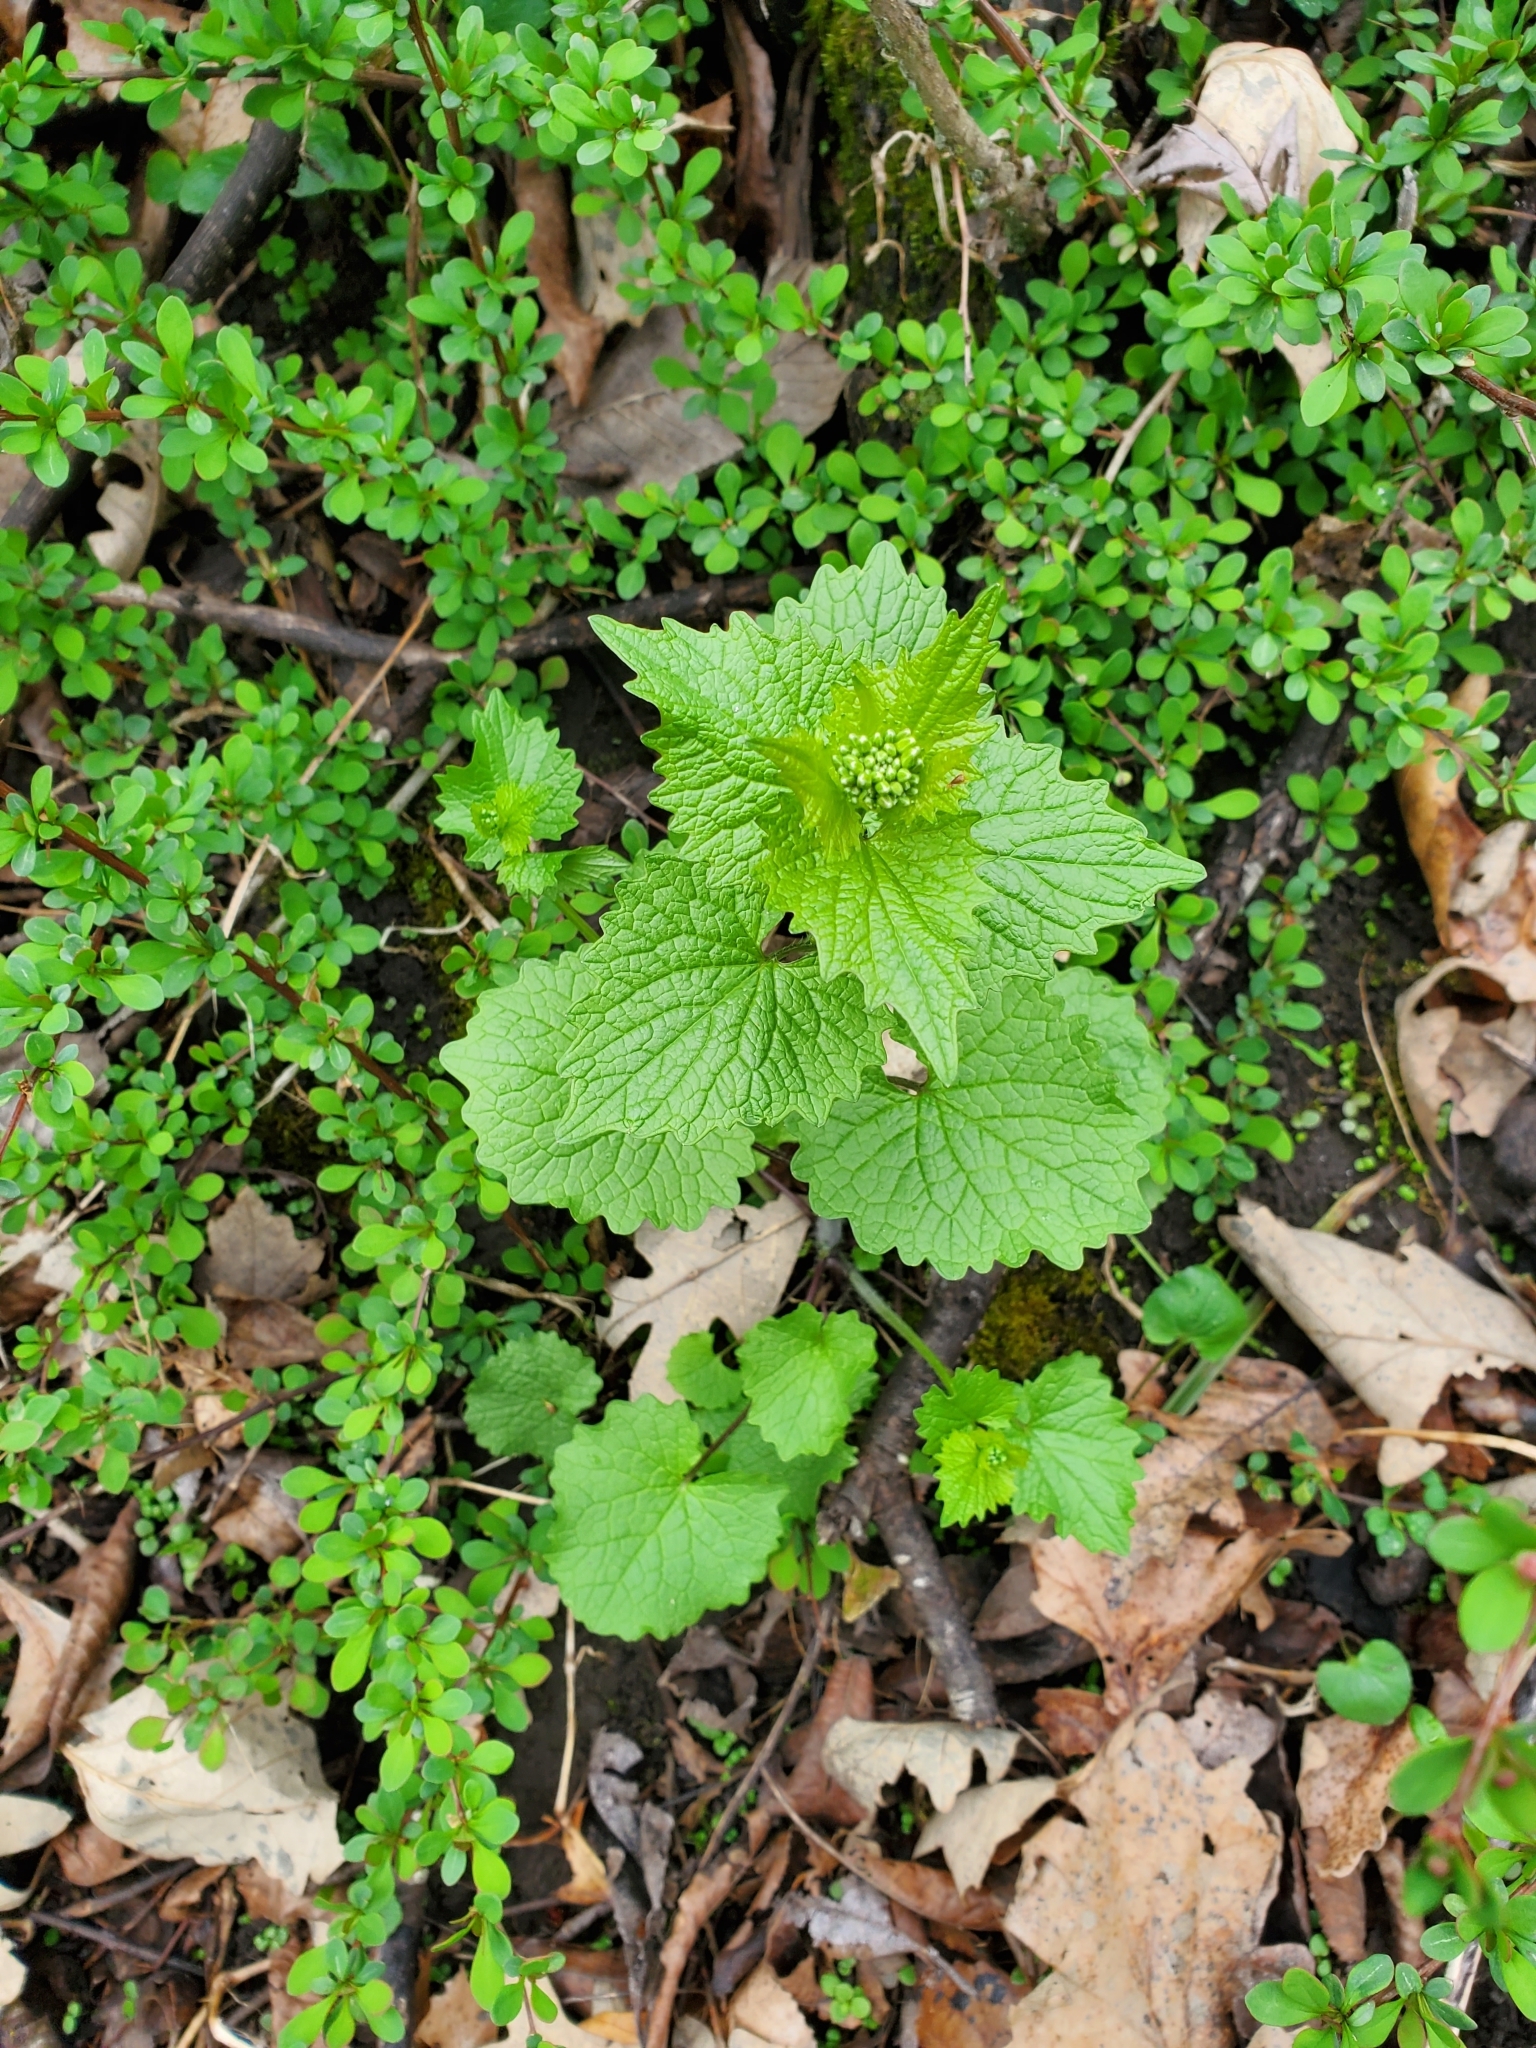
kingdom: Plantae
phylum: Tracheophyta
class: Magnoliopsida
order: Brassicales
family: Brassicaceae
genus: Alliaria
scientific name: Alliaria petiolata
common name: Garlic mustard
